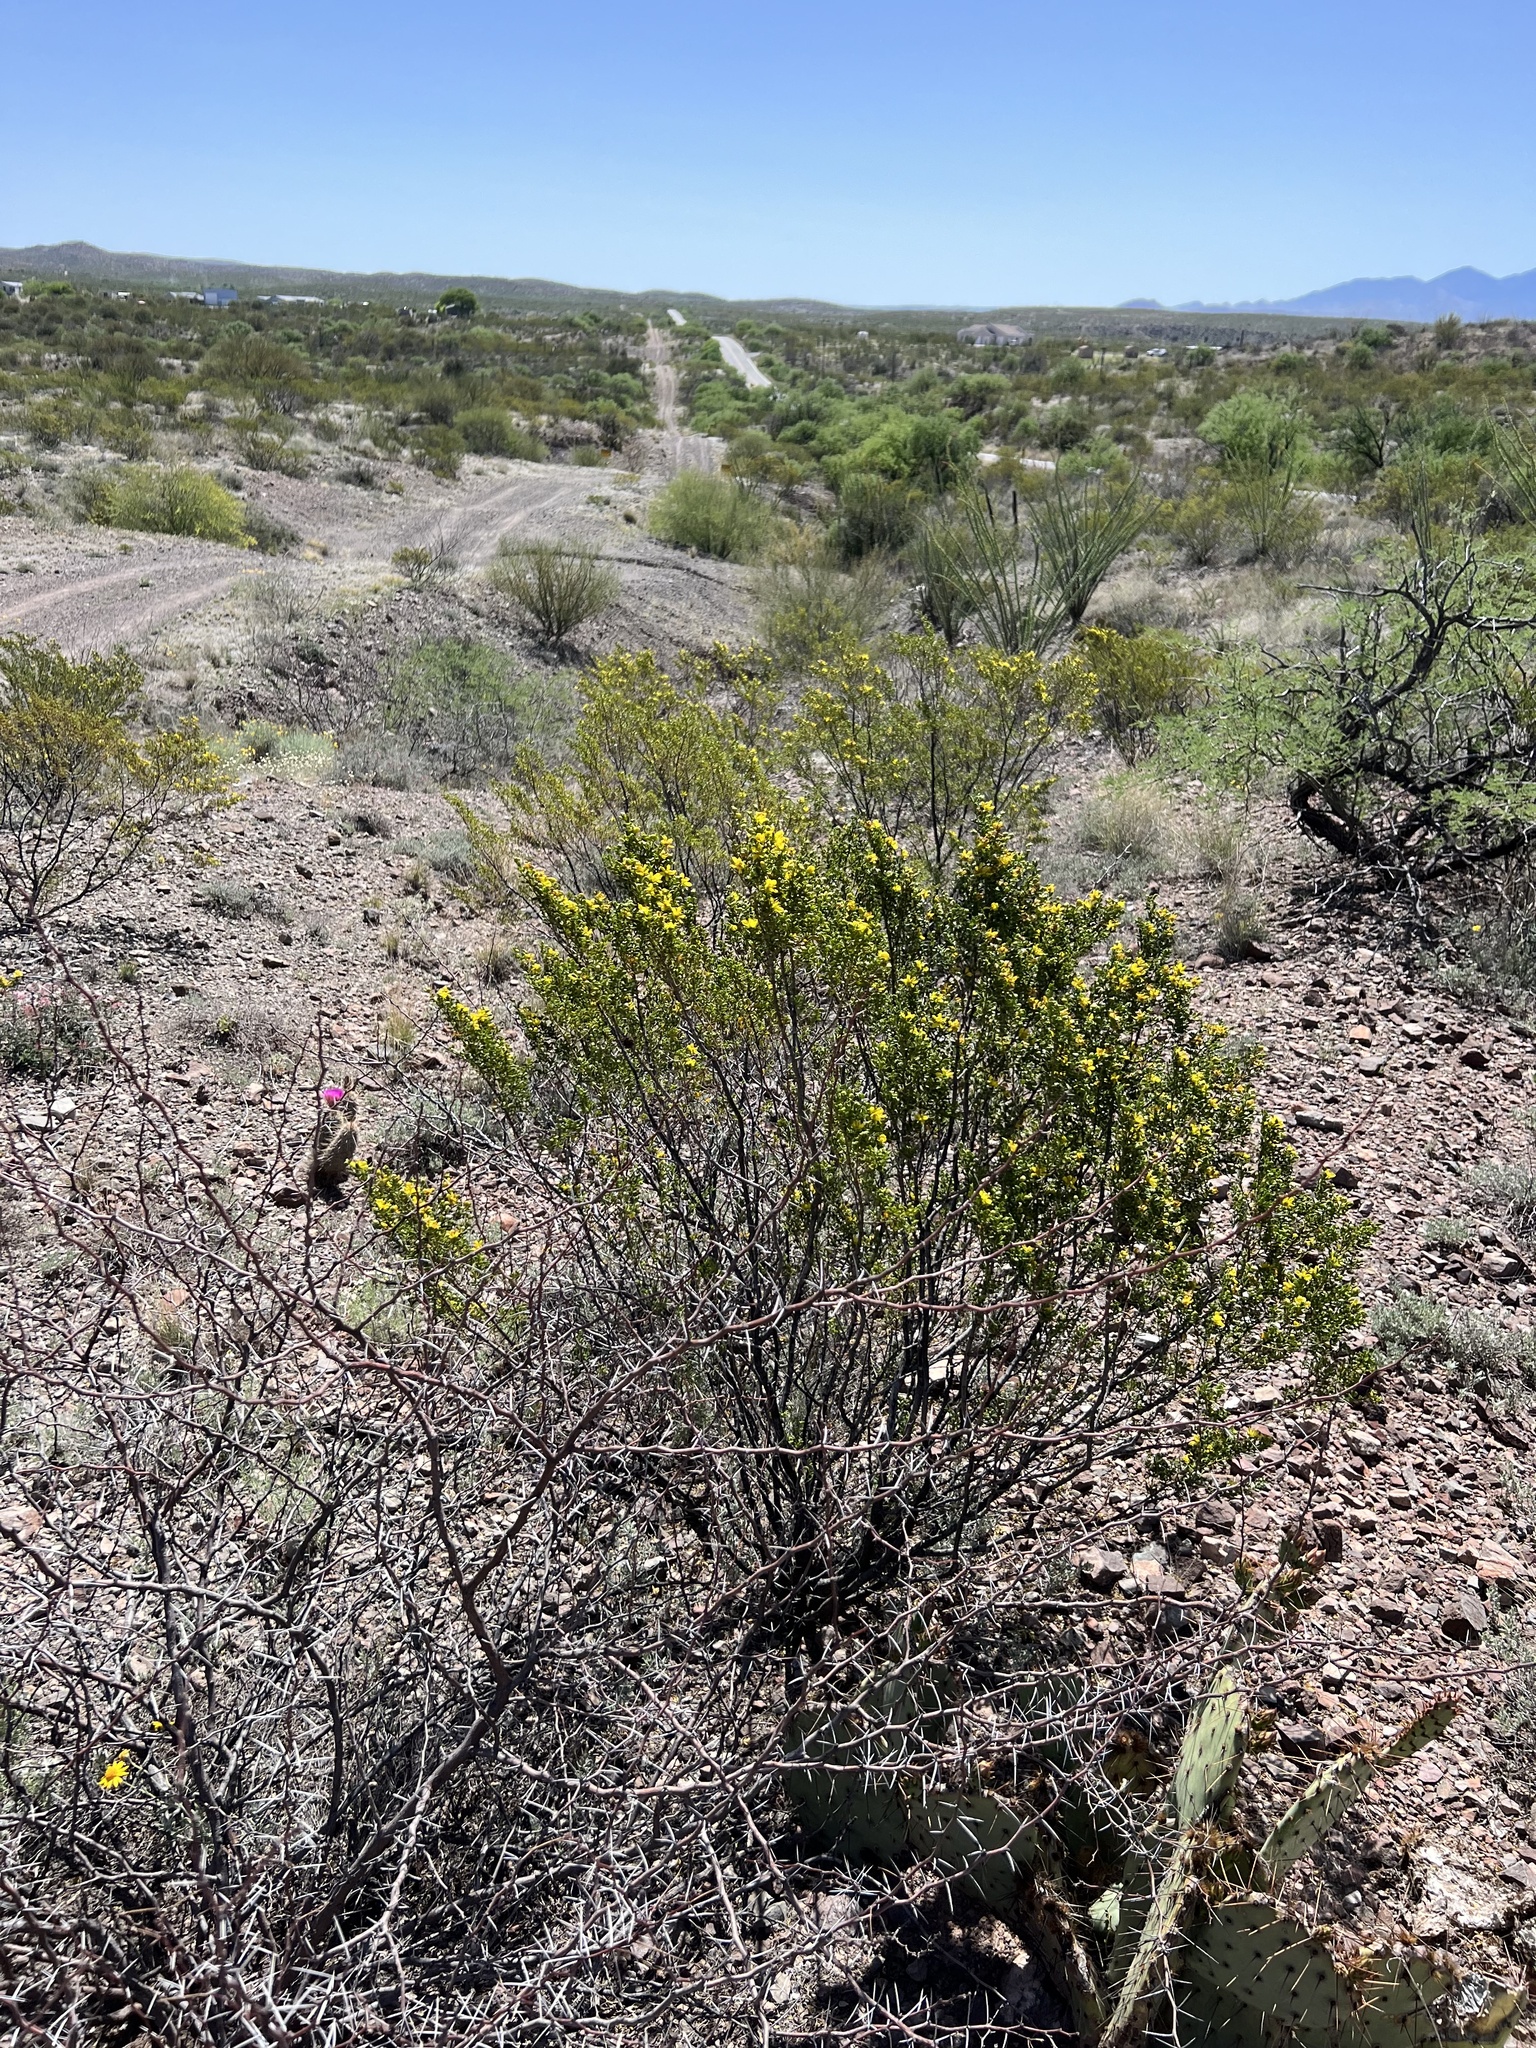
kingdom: Plantae
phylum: Tracheophyta
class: Magnoliopsida
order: Zygophyllales
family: Zygophyllaceae
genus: Larrea
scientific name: Larrea tridentata
